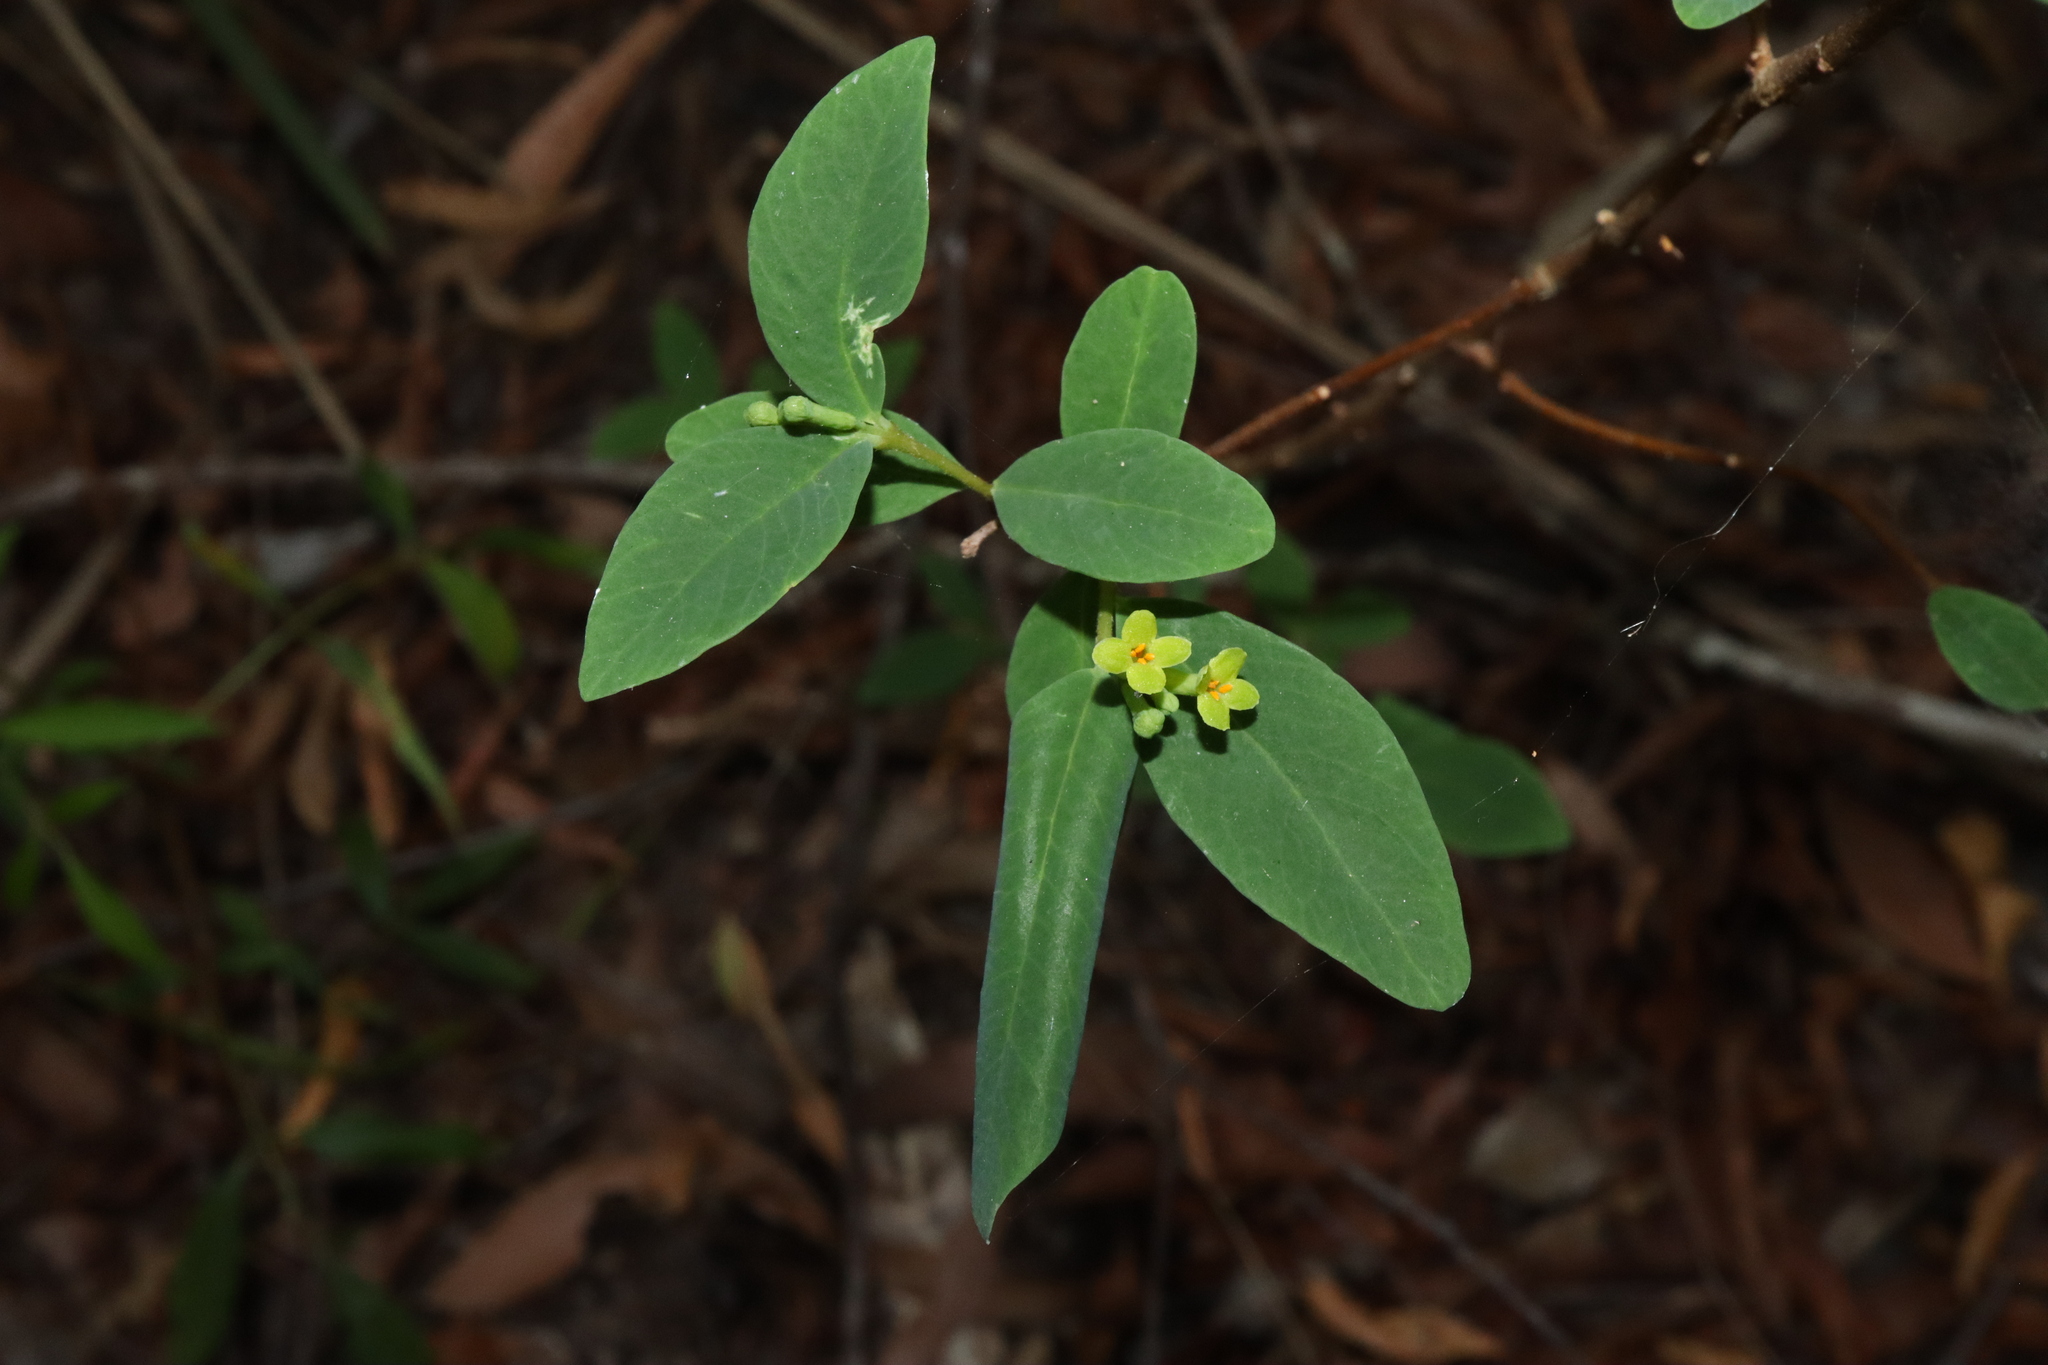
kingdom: Plantae
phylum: Tracheophyta
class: Magnoliopsida
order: Malvales
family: Thymelaeaceae
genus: Wikstroemia
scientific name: Wikstroemia indica
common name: Tiebush
